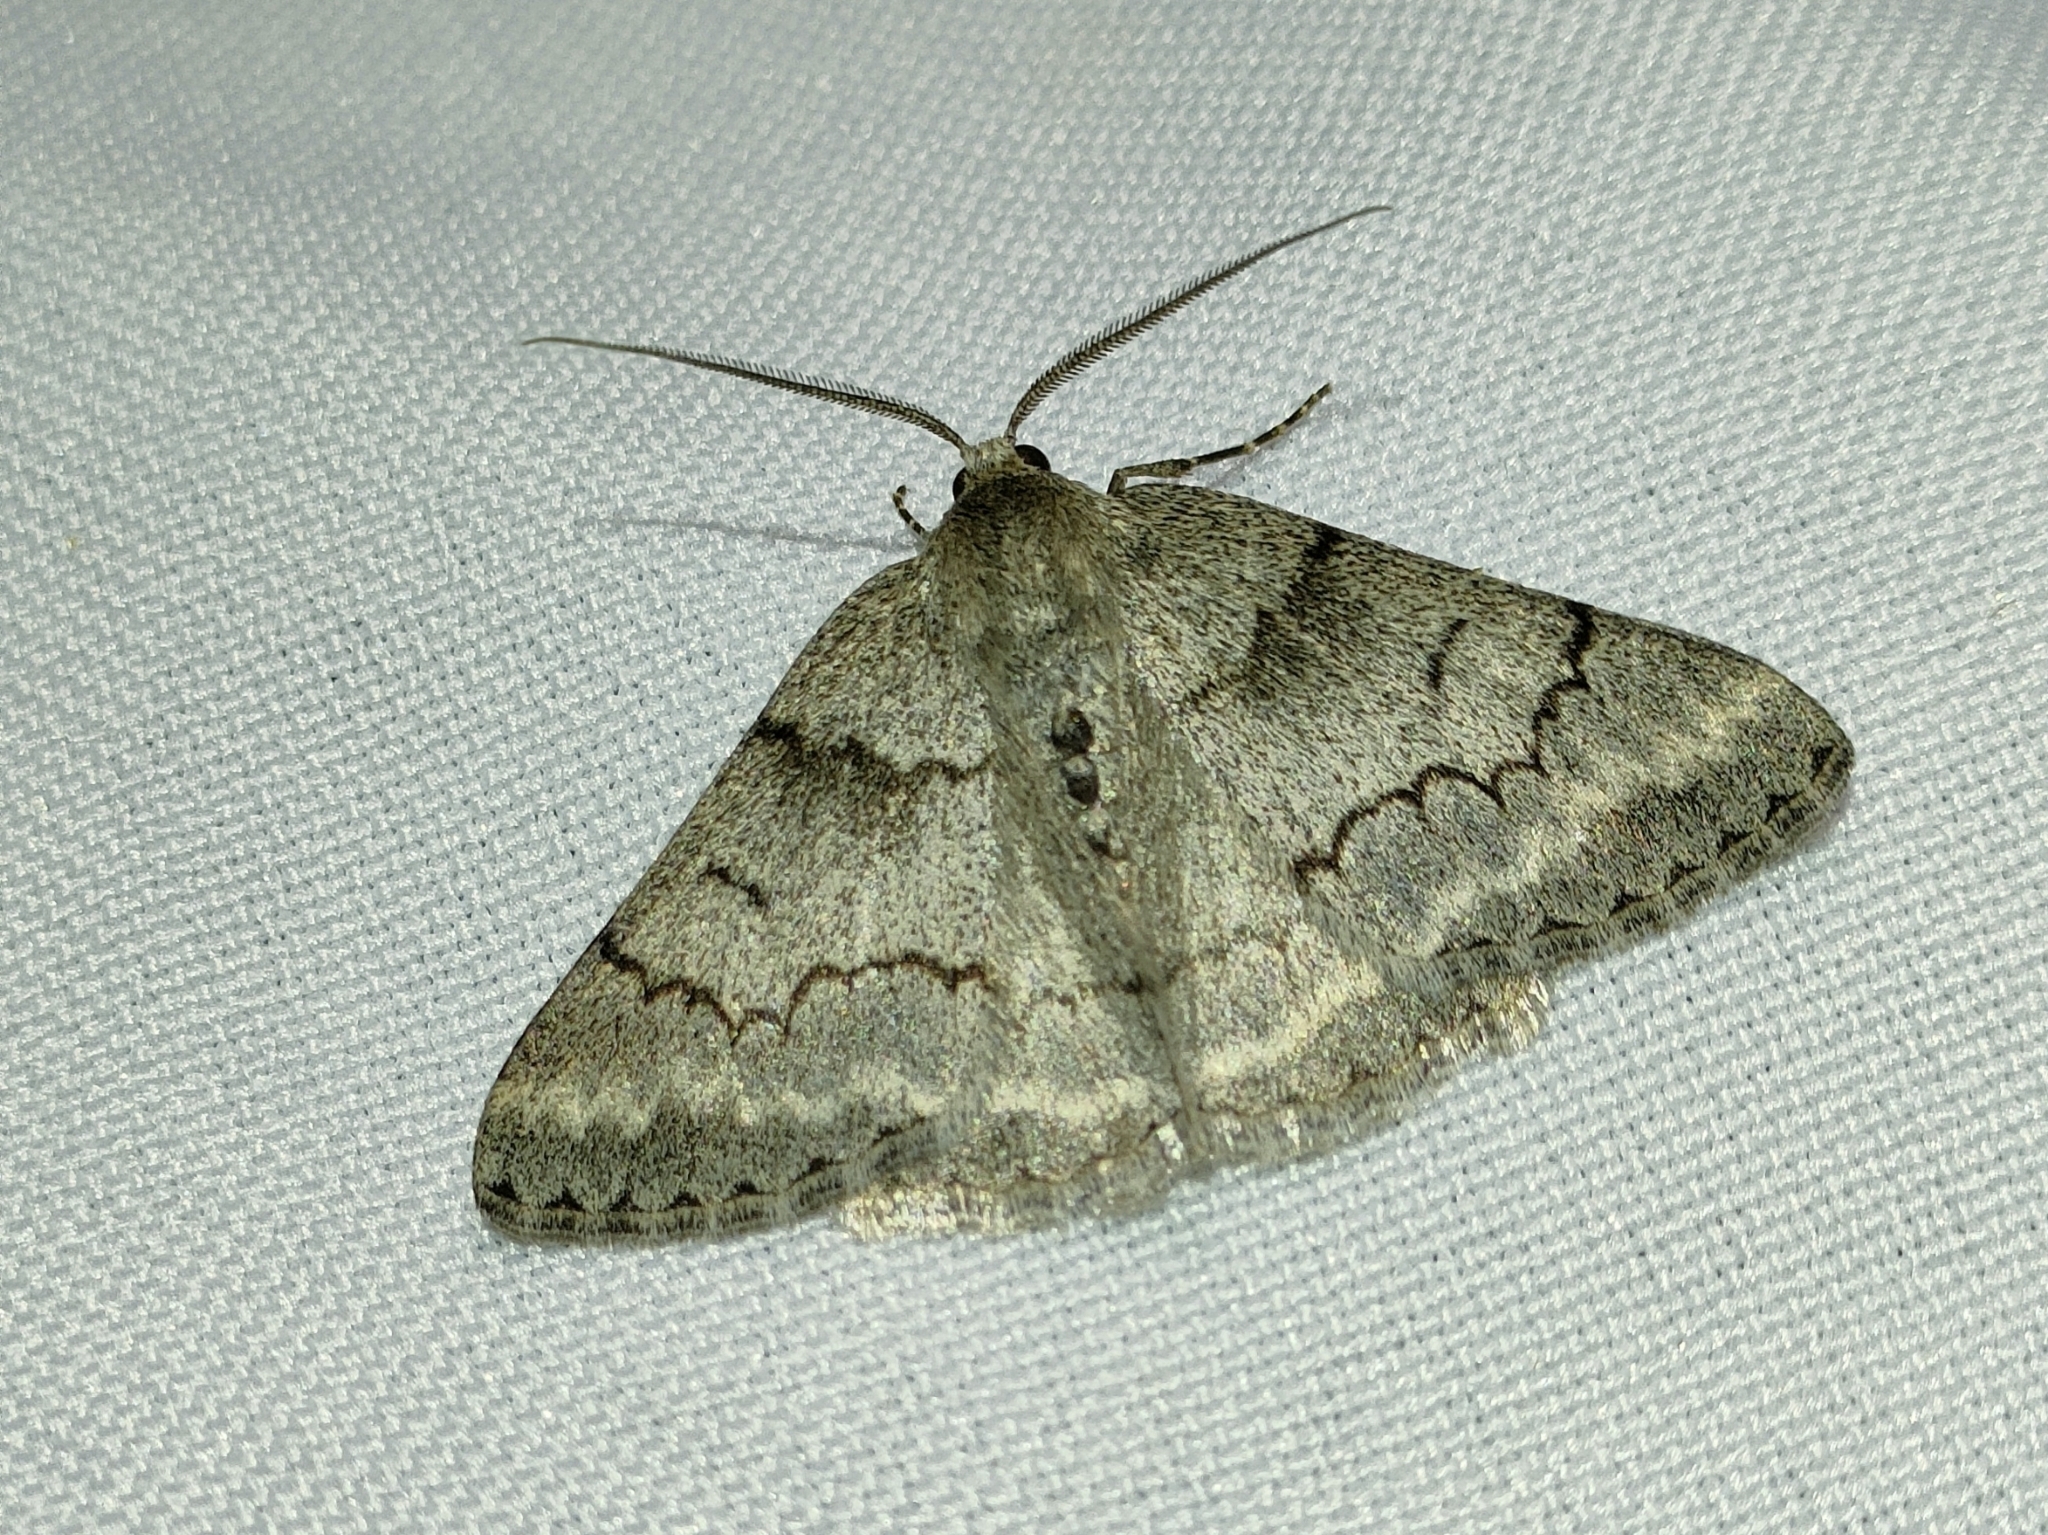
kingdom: Animalia
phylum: Arthropoda
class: Insecta
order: Lepidoptera
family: Geometridae
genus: Pseudoterpna
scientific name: Pseudoterpna coronillaria
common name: Jersey emerald
